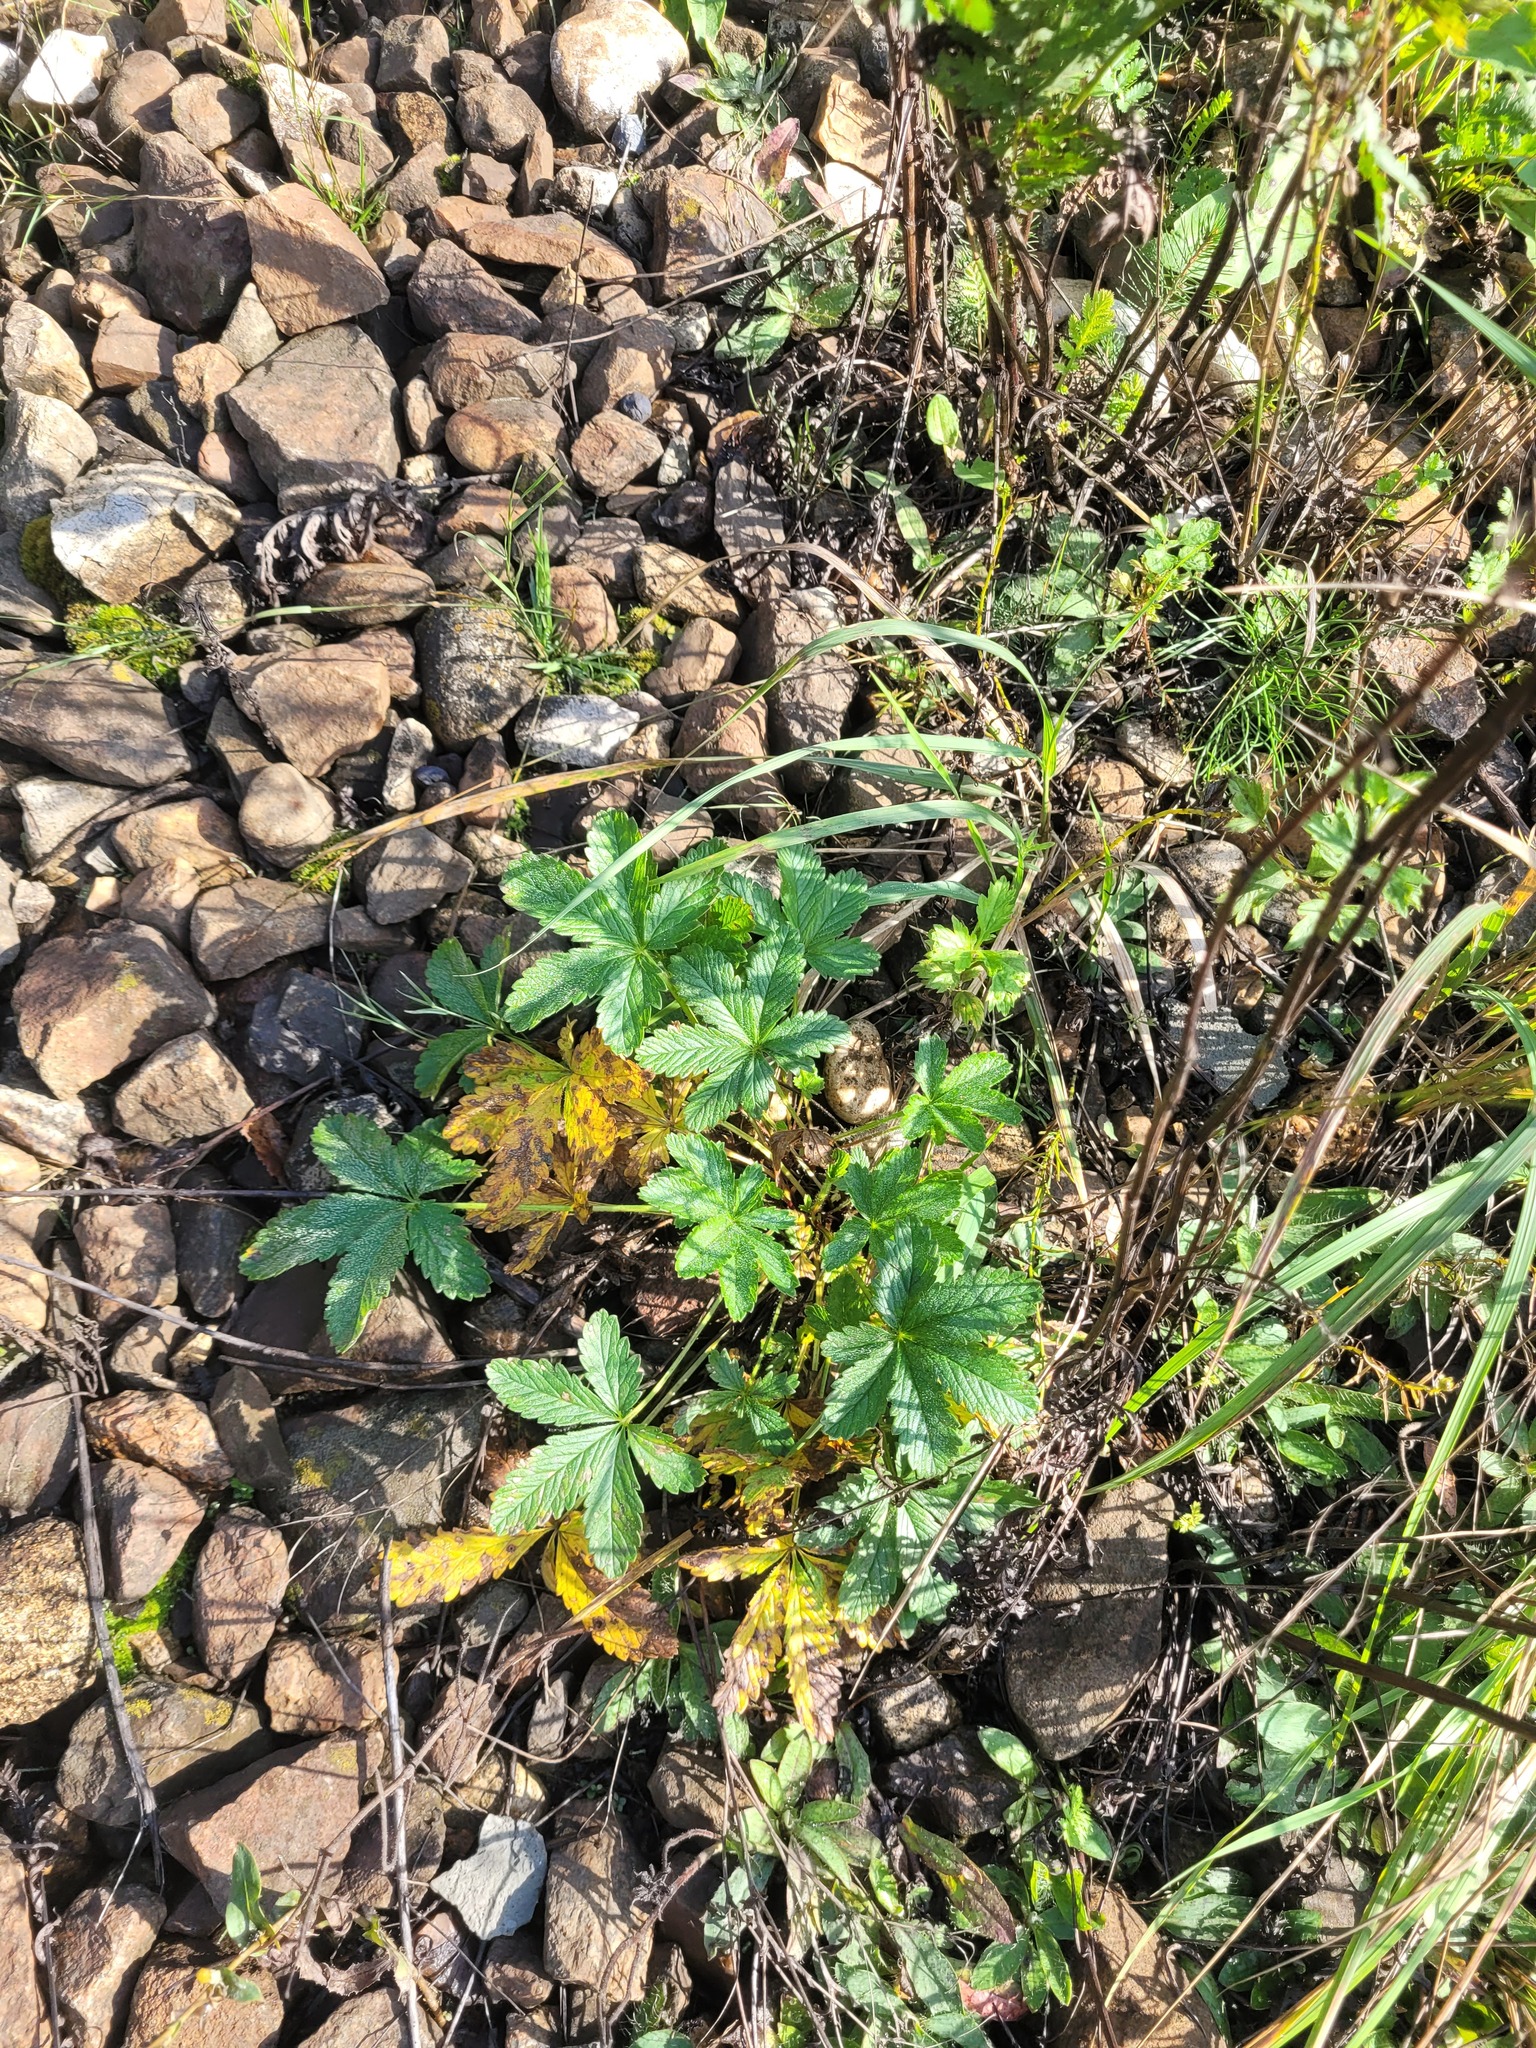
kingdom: Plantae
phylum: Tracheophyta
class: Magnoliopsida
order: Rosales
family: Rosaceae
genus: Potentilla
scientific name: Potentilla thuringiaca
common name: European cinquefoil
